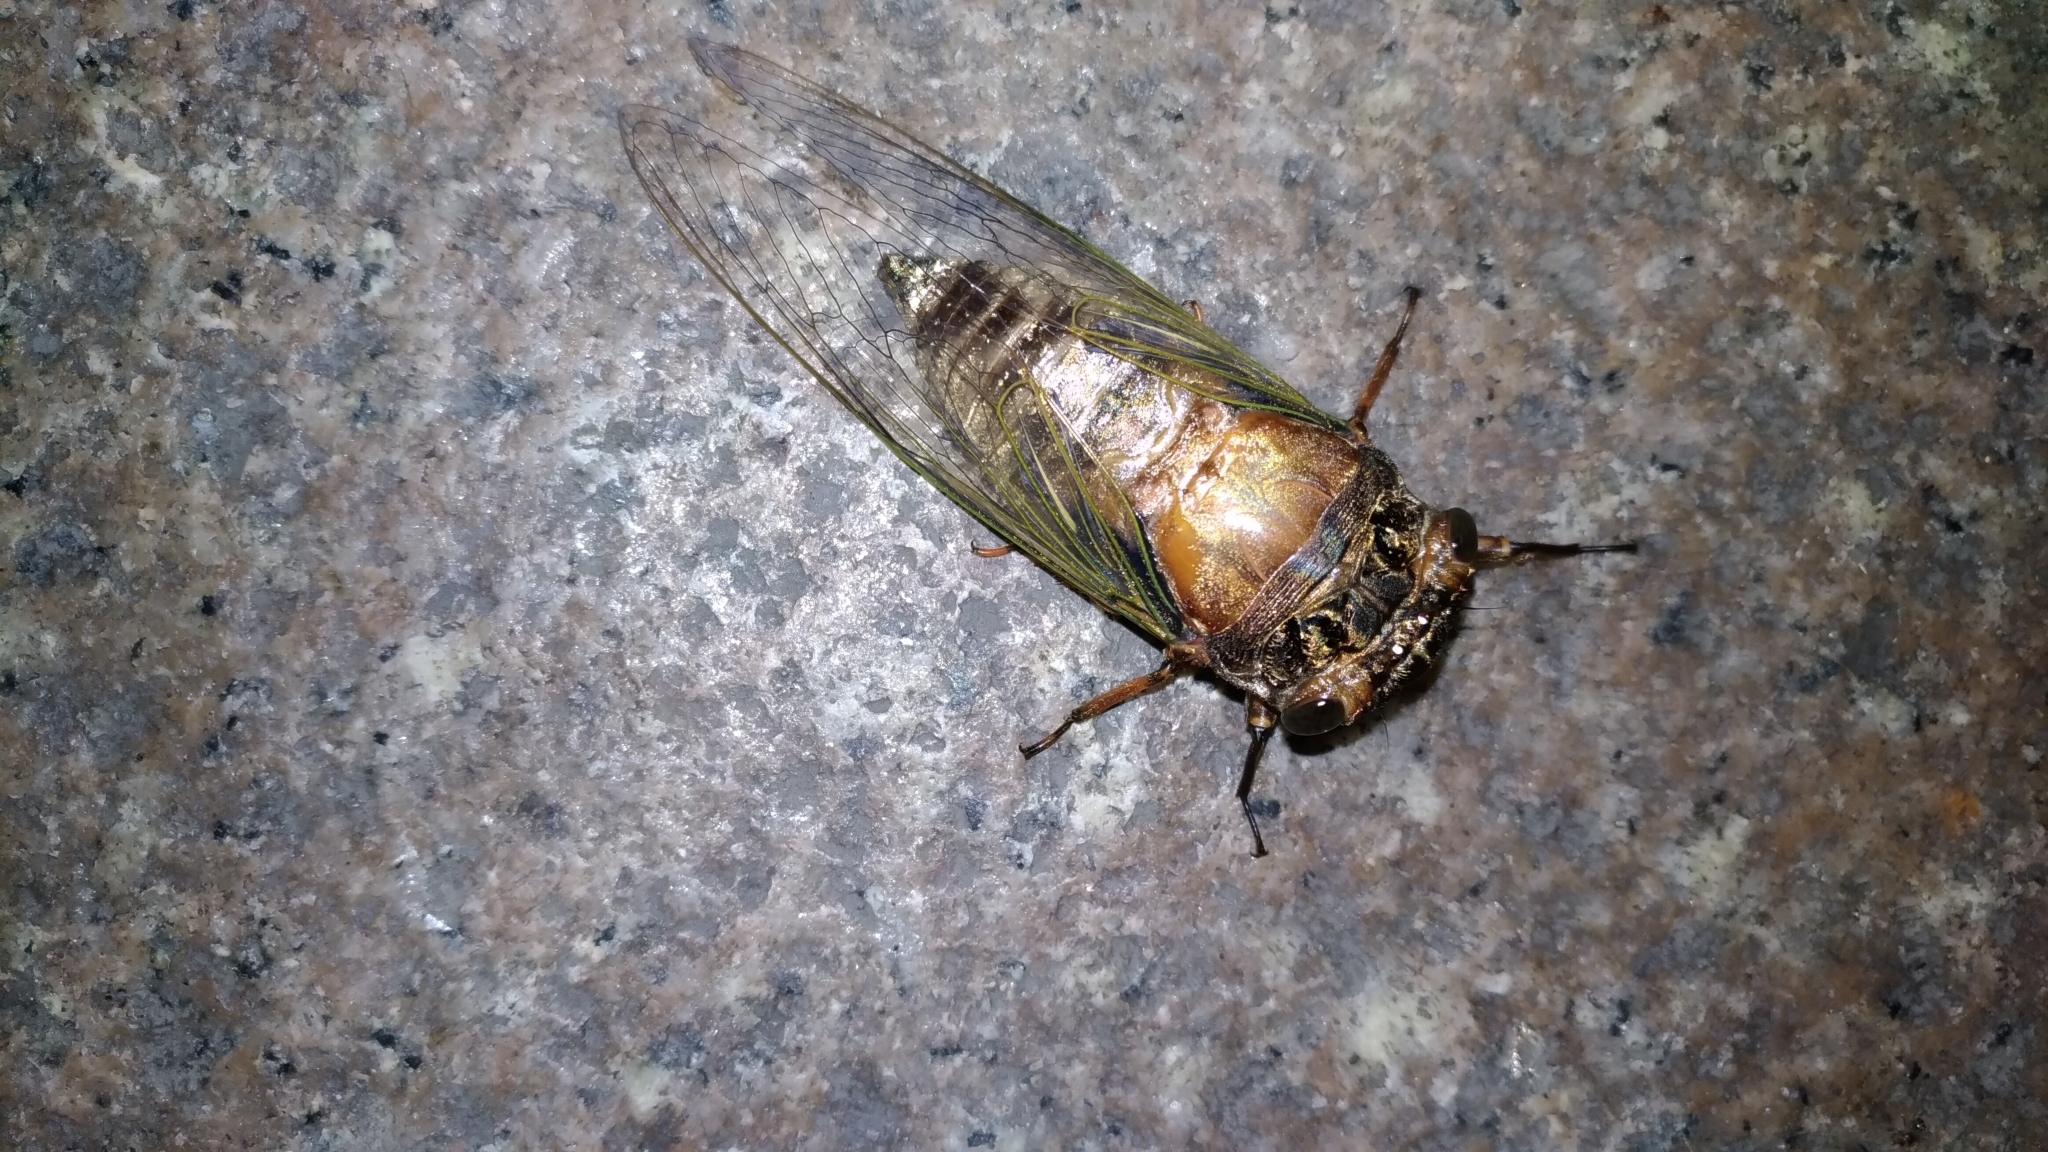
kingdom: Animalia
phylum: Arthropoda
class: Insecta
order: Hemiptera
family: Cicadidae
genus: Cryptotympana
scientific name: Cryptotympana takasagona
